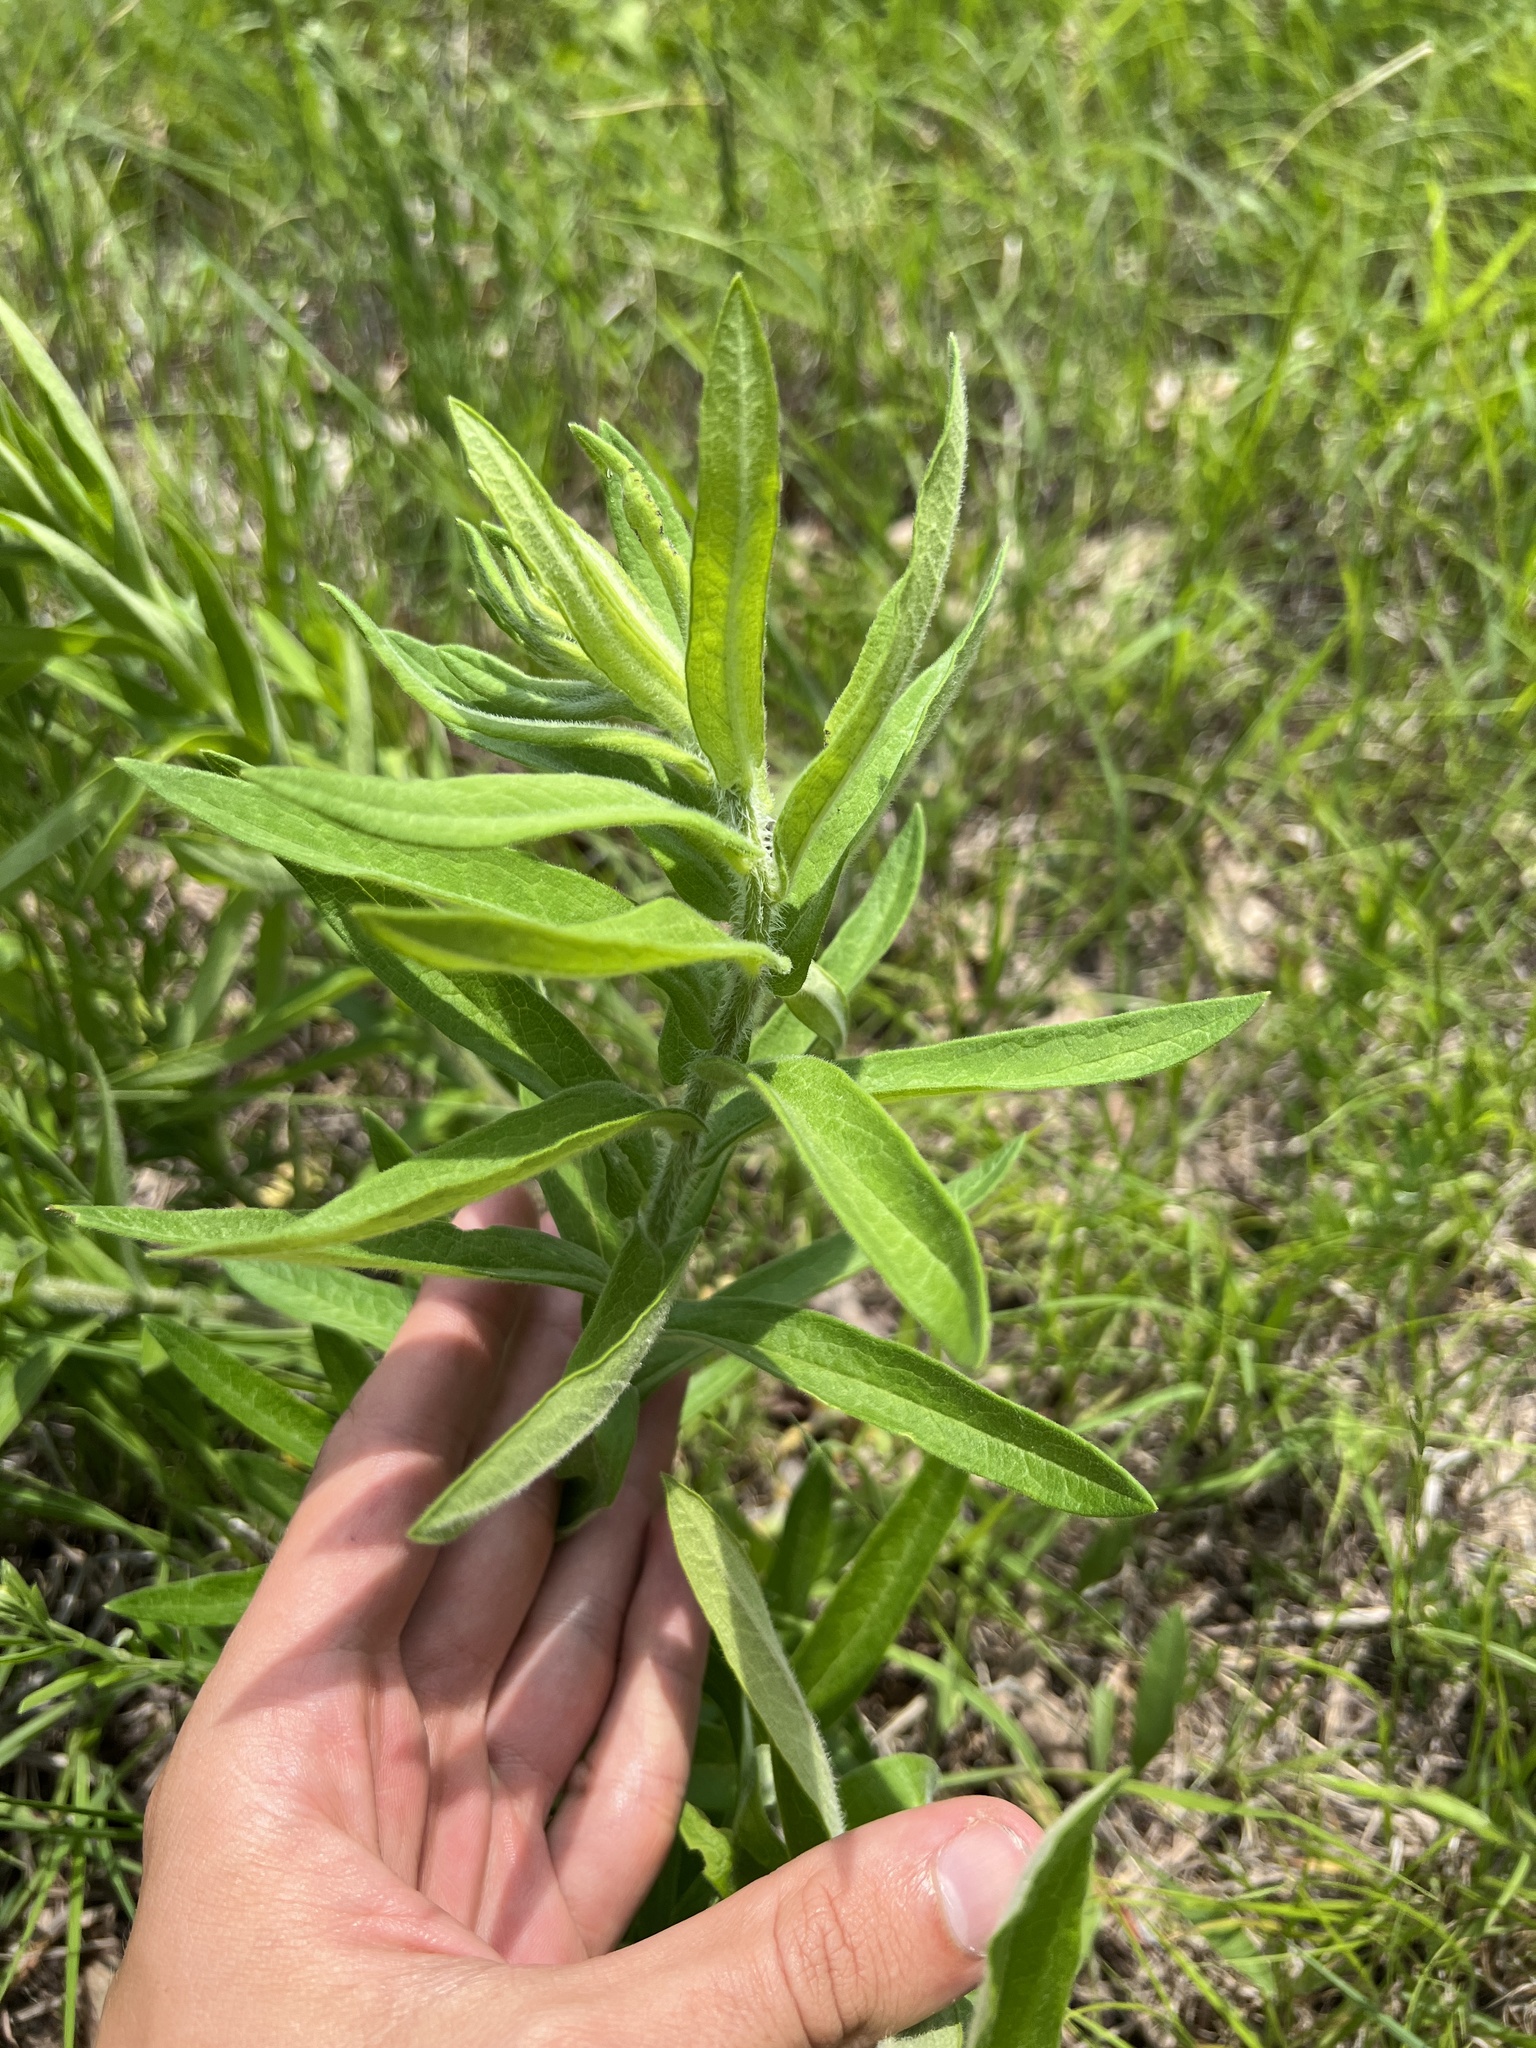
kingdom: Plantae
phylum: Tracheophyta
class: Magnoliopsida
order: Gentianales
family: Apocynaceae
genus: Asclepias
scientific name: Asclepias tuberosa
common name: Butterfly milkweed
